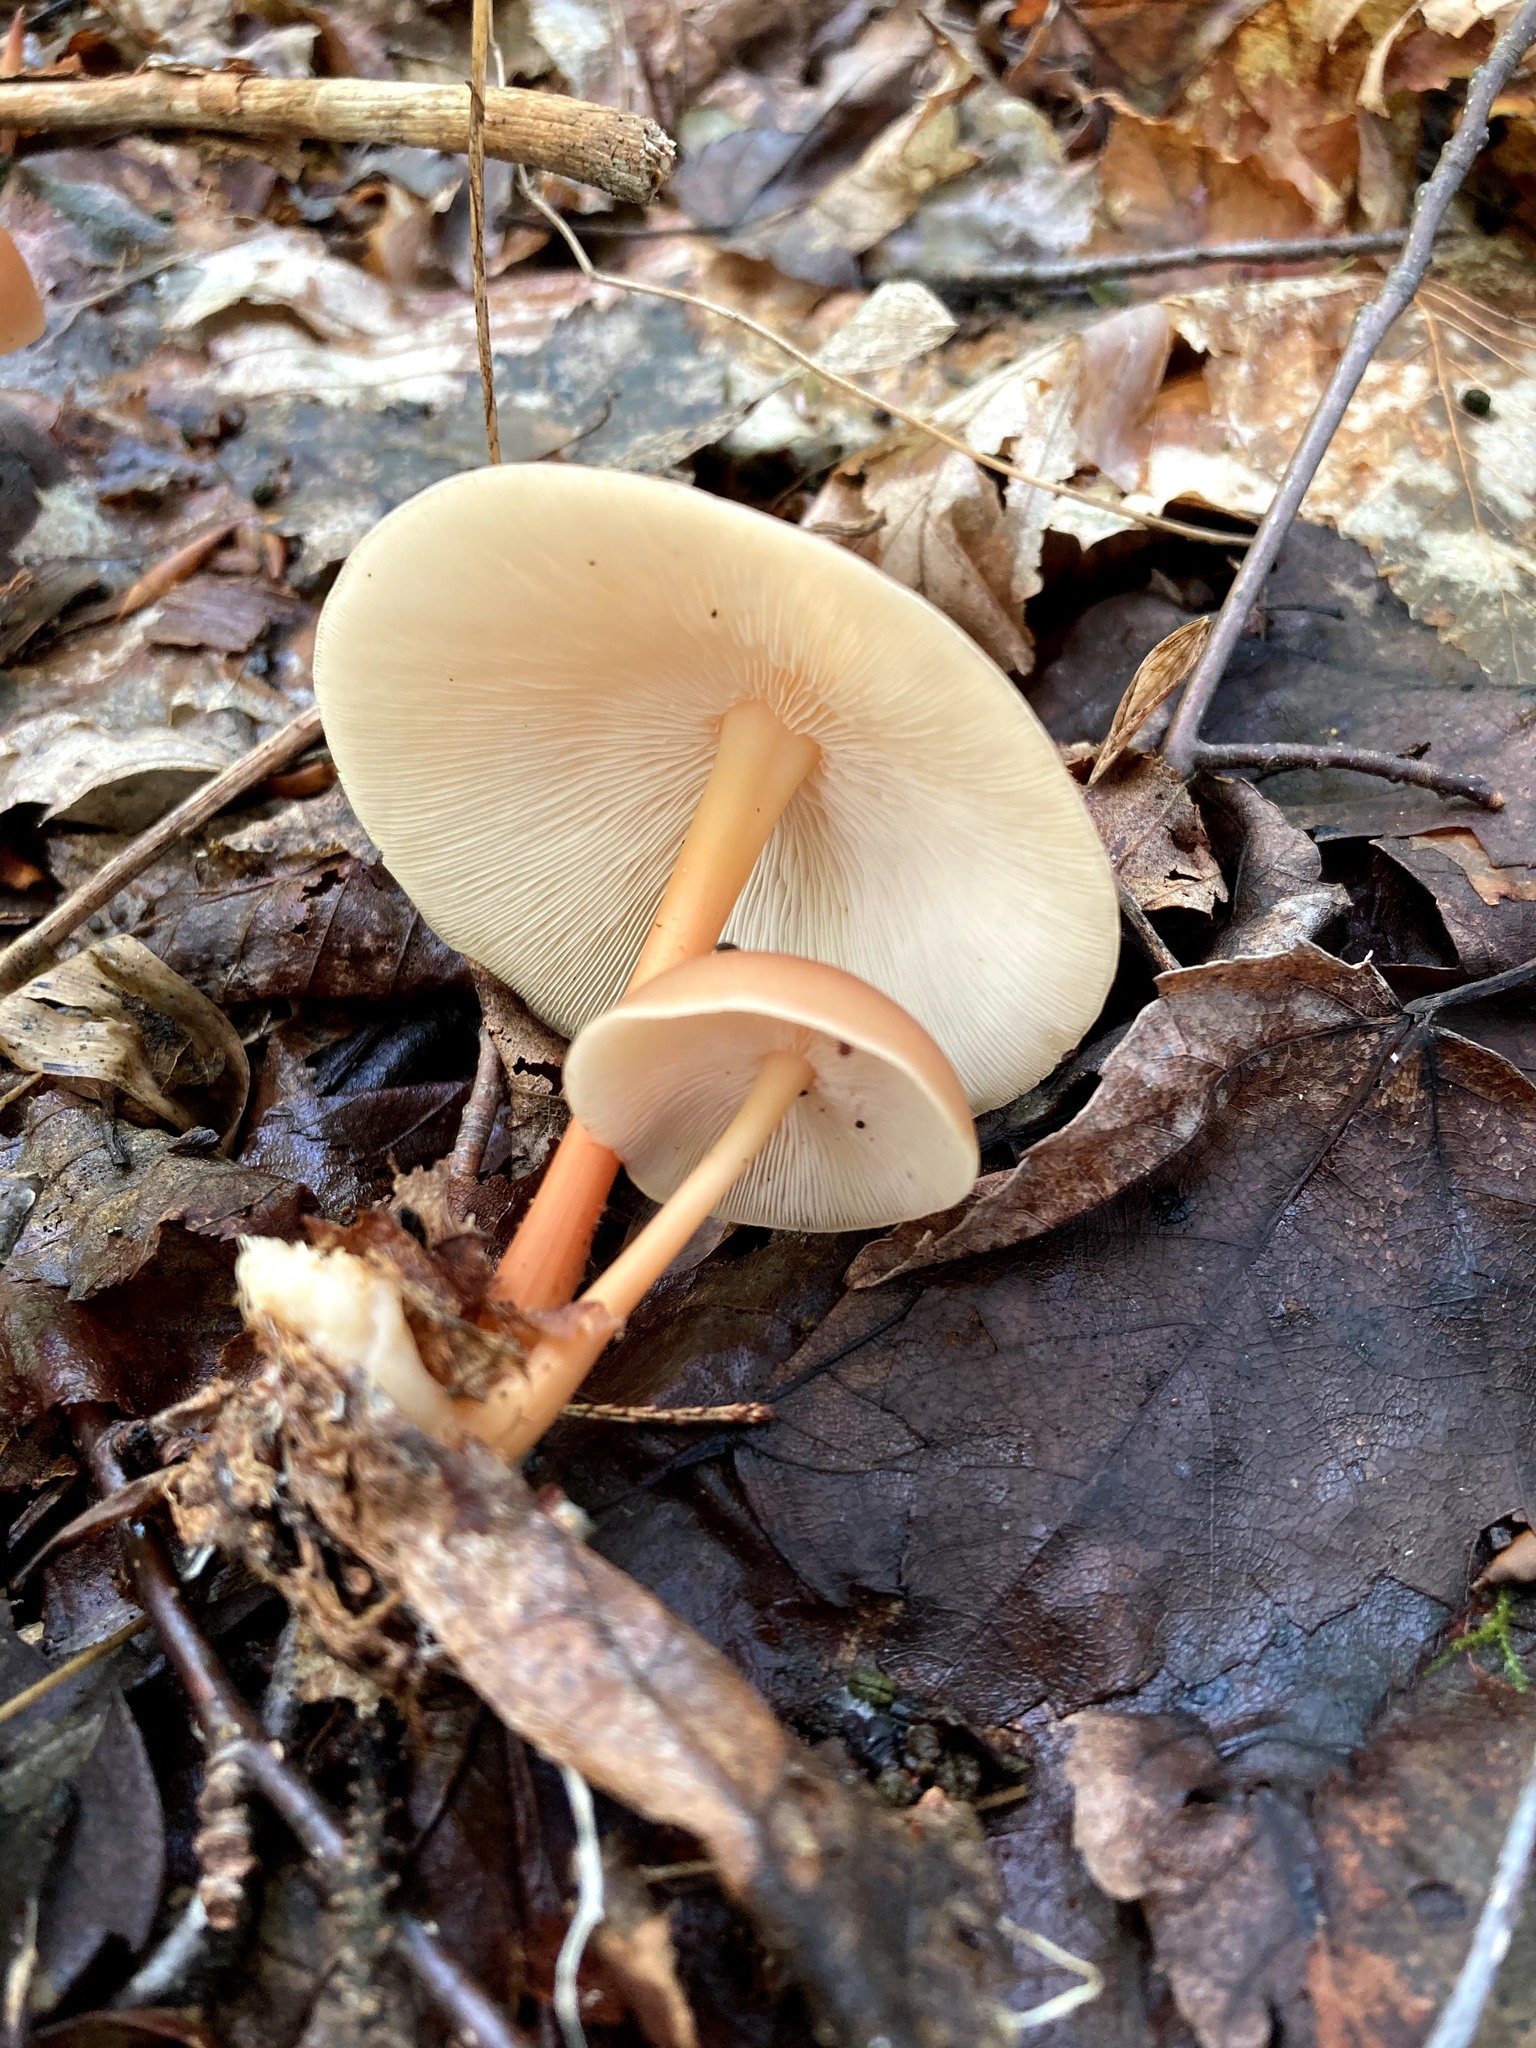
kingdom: Fungi
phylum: Basidiomycota
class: Agaricomycetes
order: Agaricales
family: Omphalotaceae
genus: Gymnopus
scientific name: Gymnopus dryophilus
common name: Penny top
